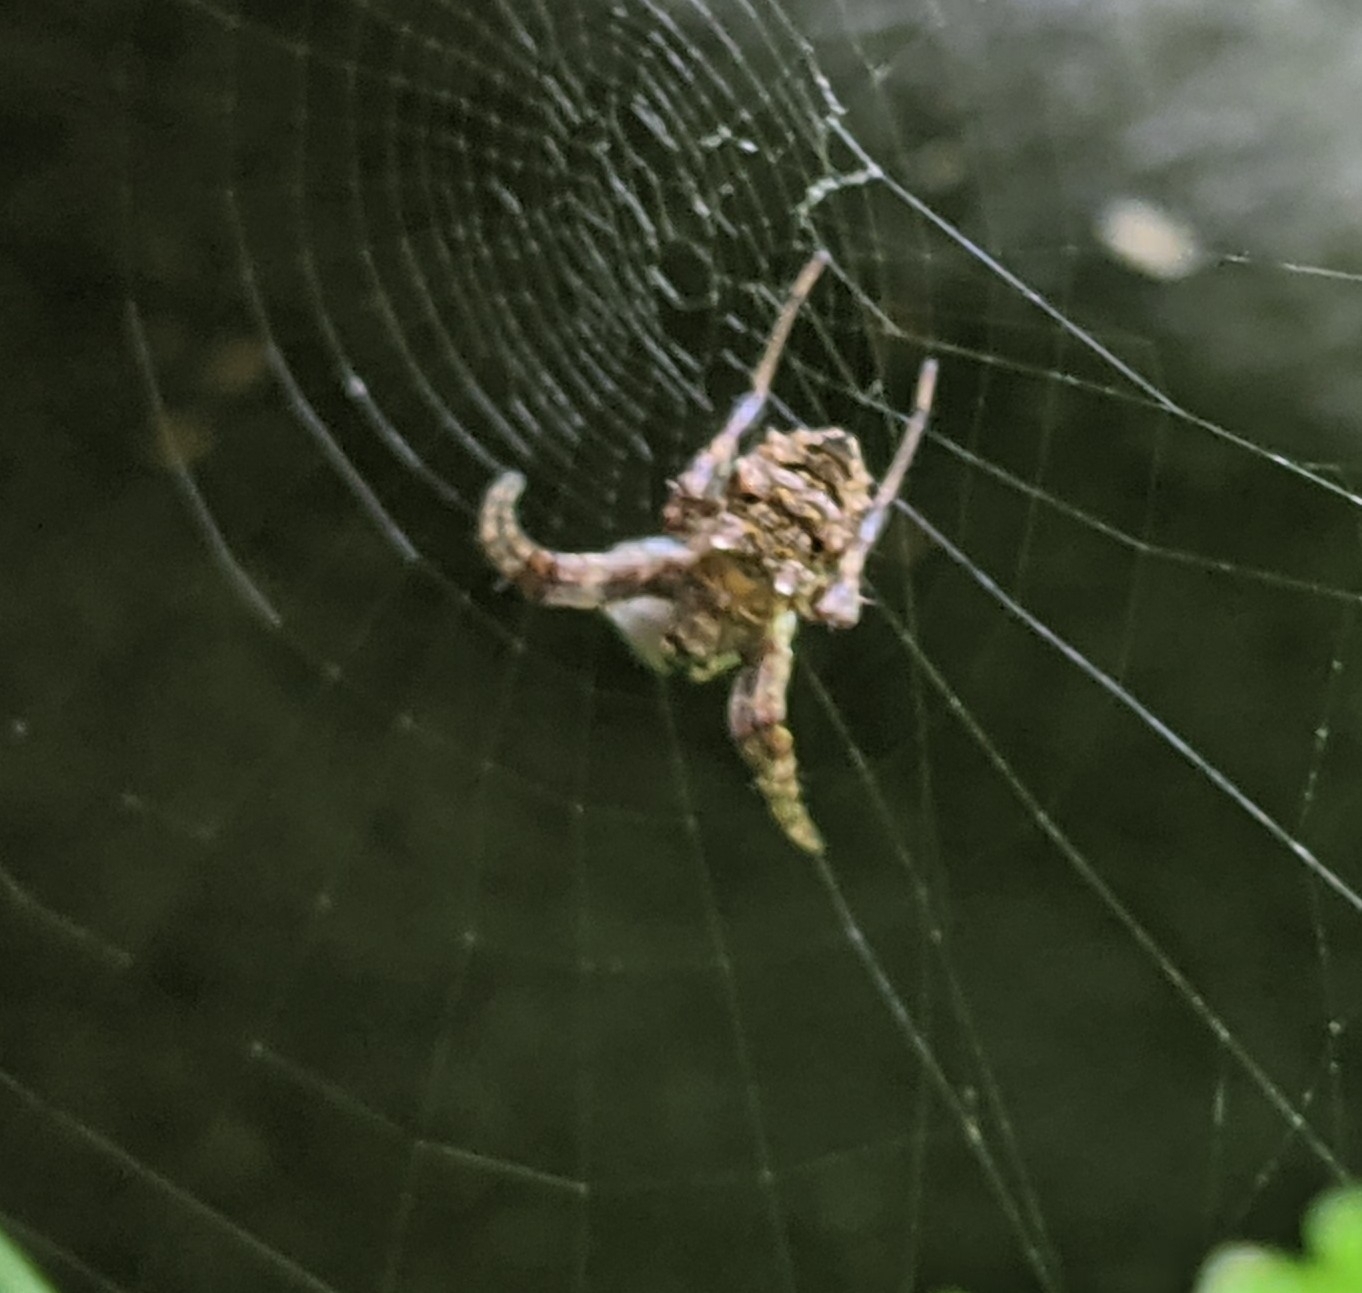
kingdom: Animalia
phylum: Arthropoda
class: Arachnida
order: Araneae
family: Araneidae
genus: Gea
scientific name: Gea heptagon
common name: Orb weavers
